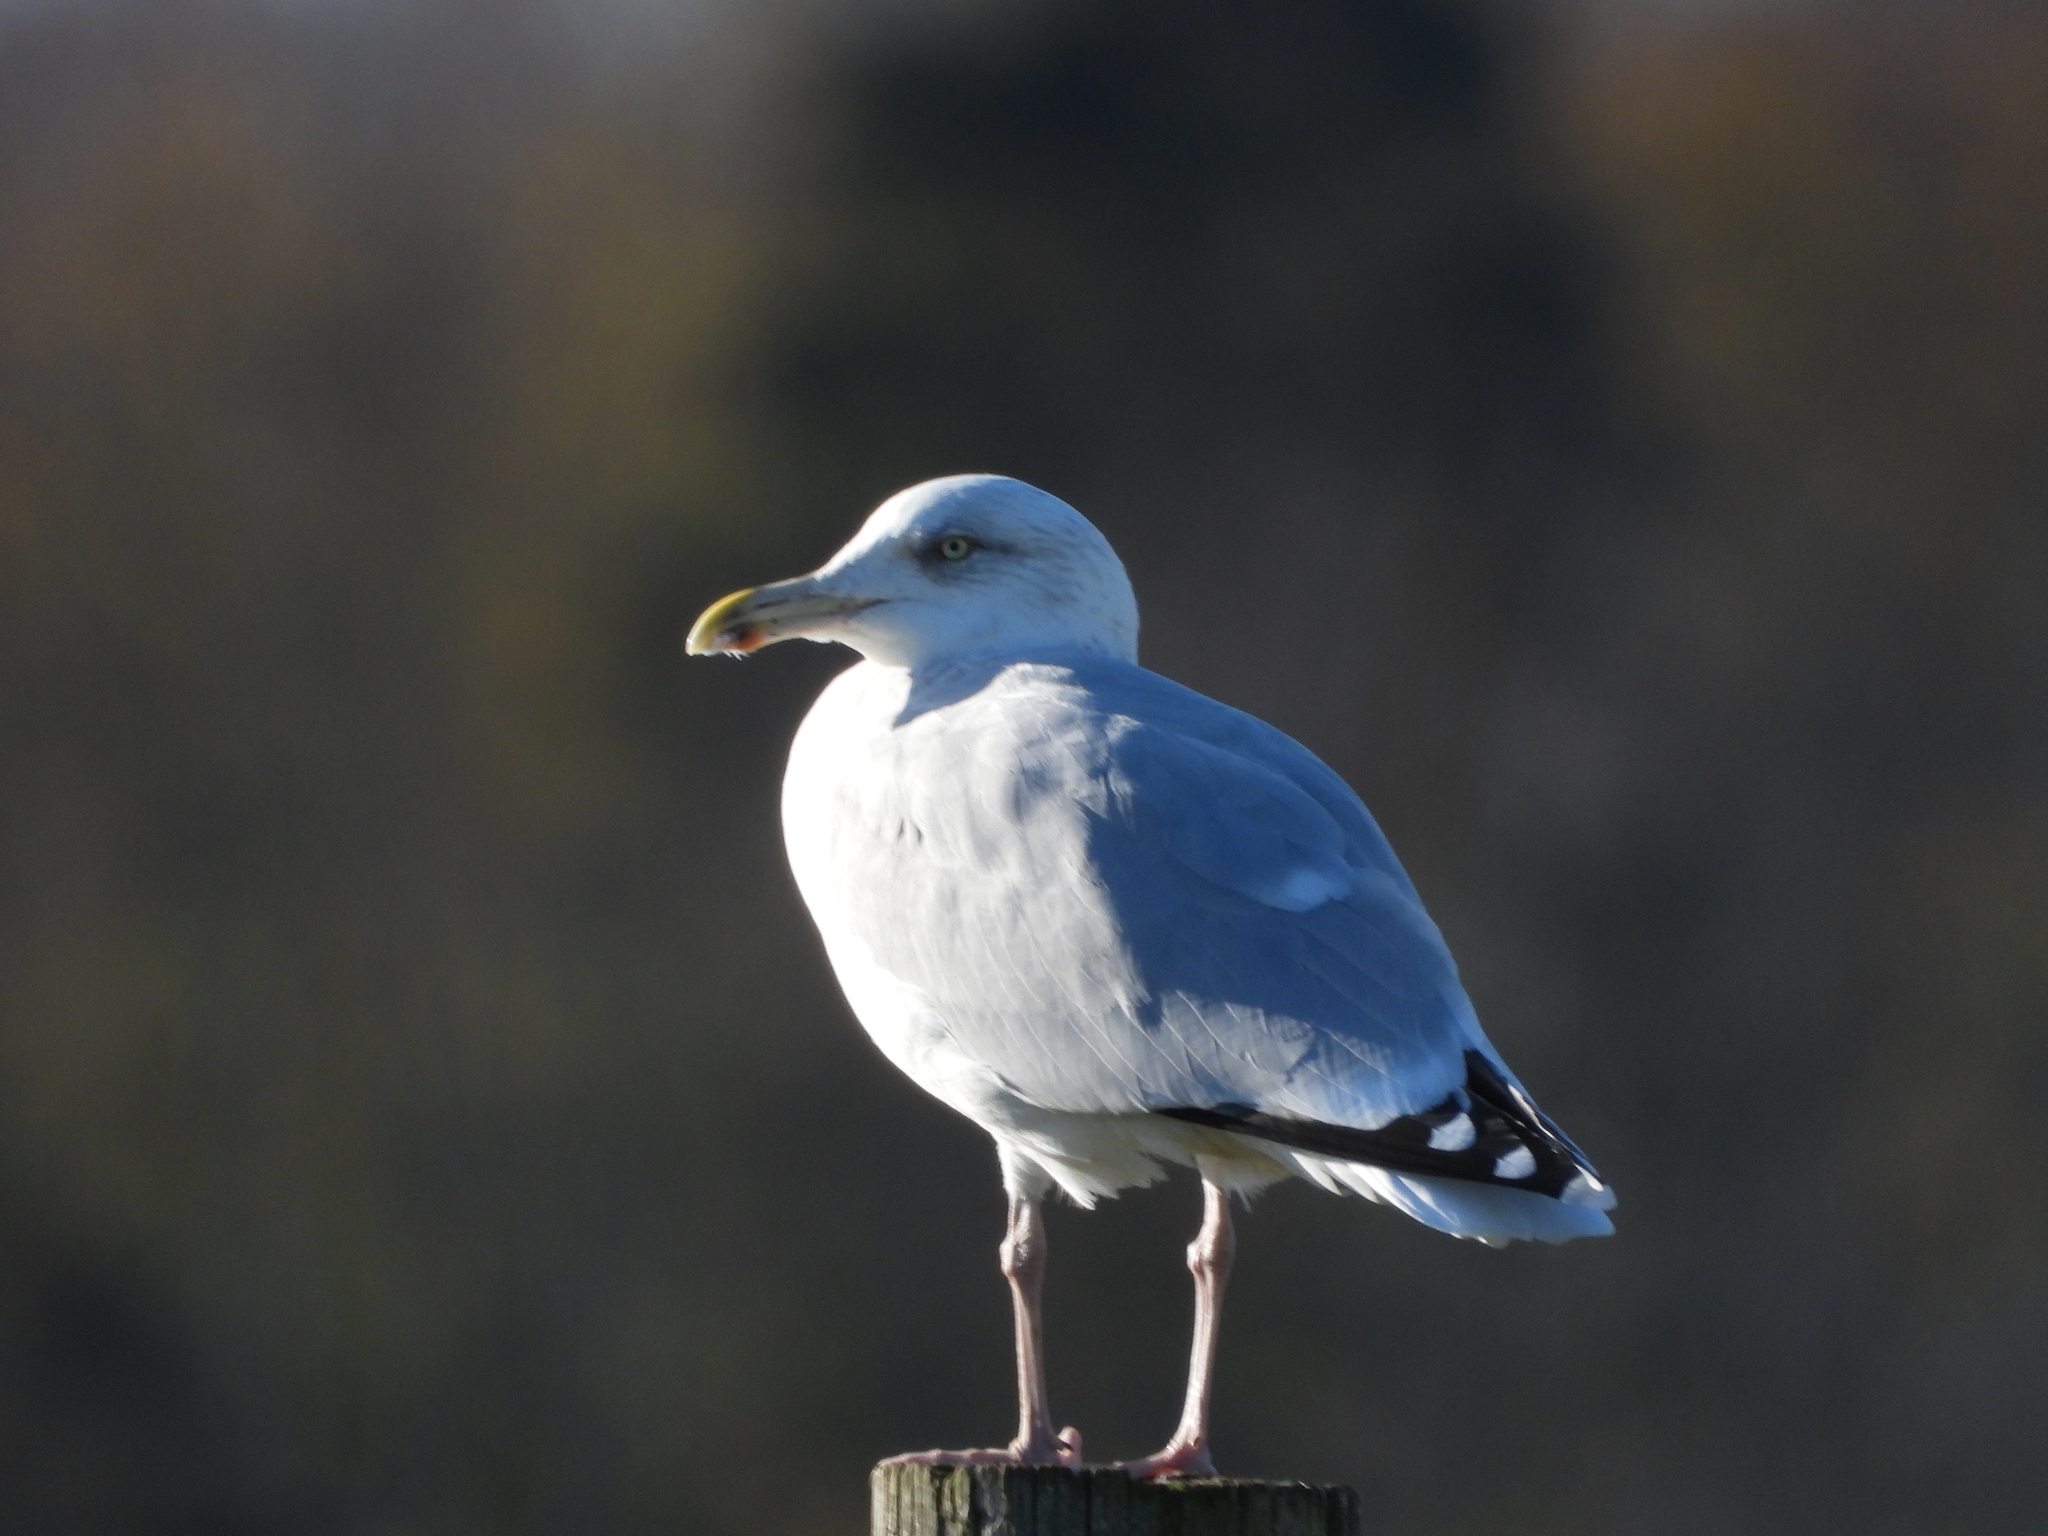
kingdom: Animalia
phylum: Chordata
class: Aves
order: Charadriiformes
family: Laridae
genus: Larus
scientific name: Larus argentatus
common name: Herring gull
